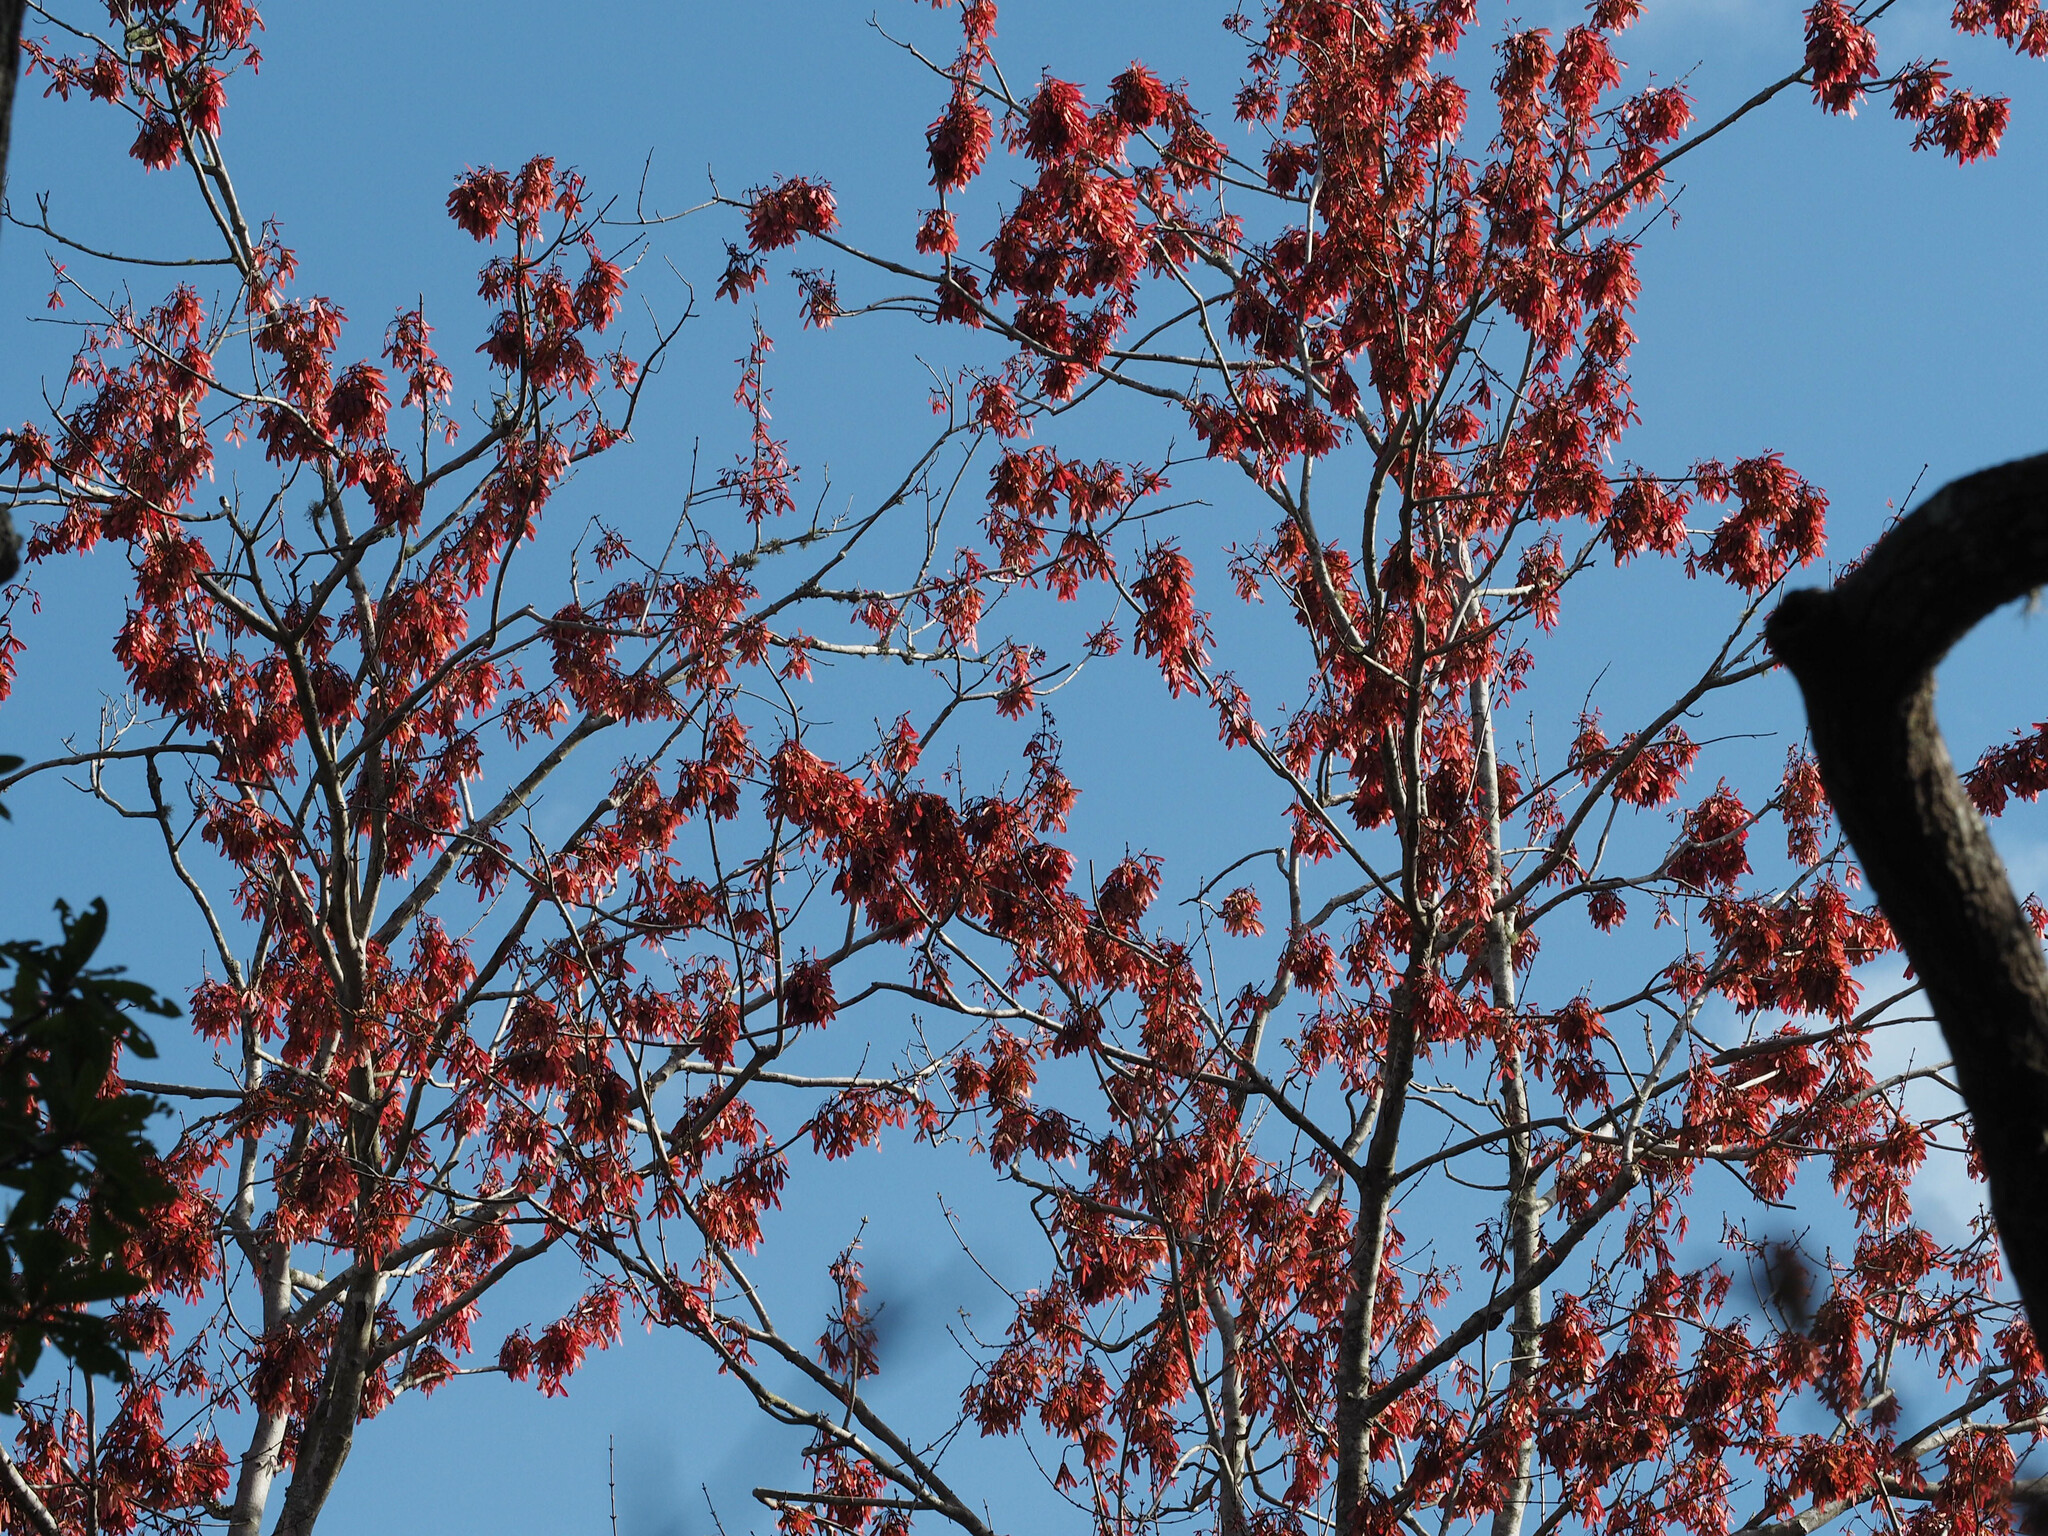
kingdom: Plantae
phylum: Tracheophyta
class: Magnoliopsida
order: Sapindales
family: Sapindaceae
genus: Acer
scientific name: Acer rubrum
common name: Red maple
